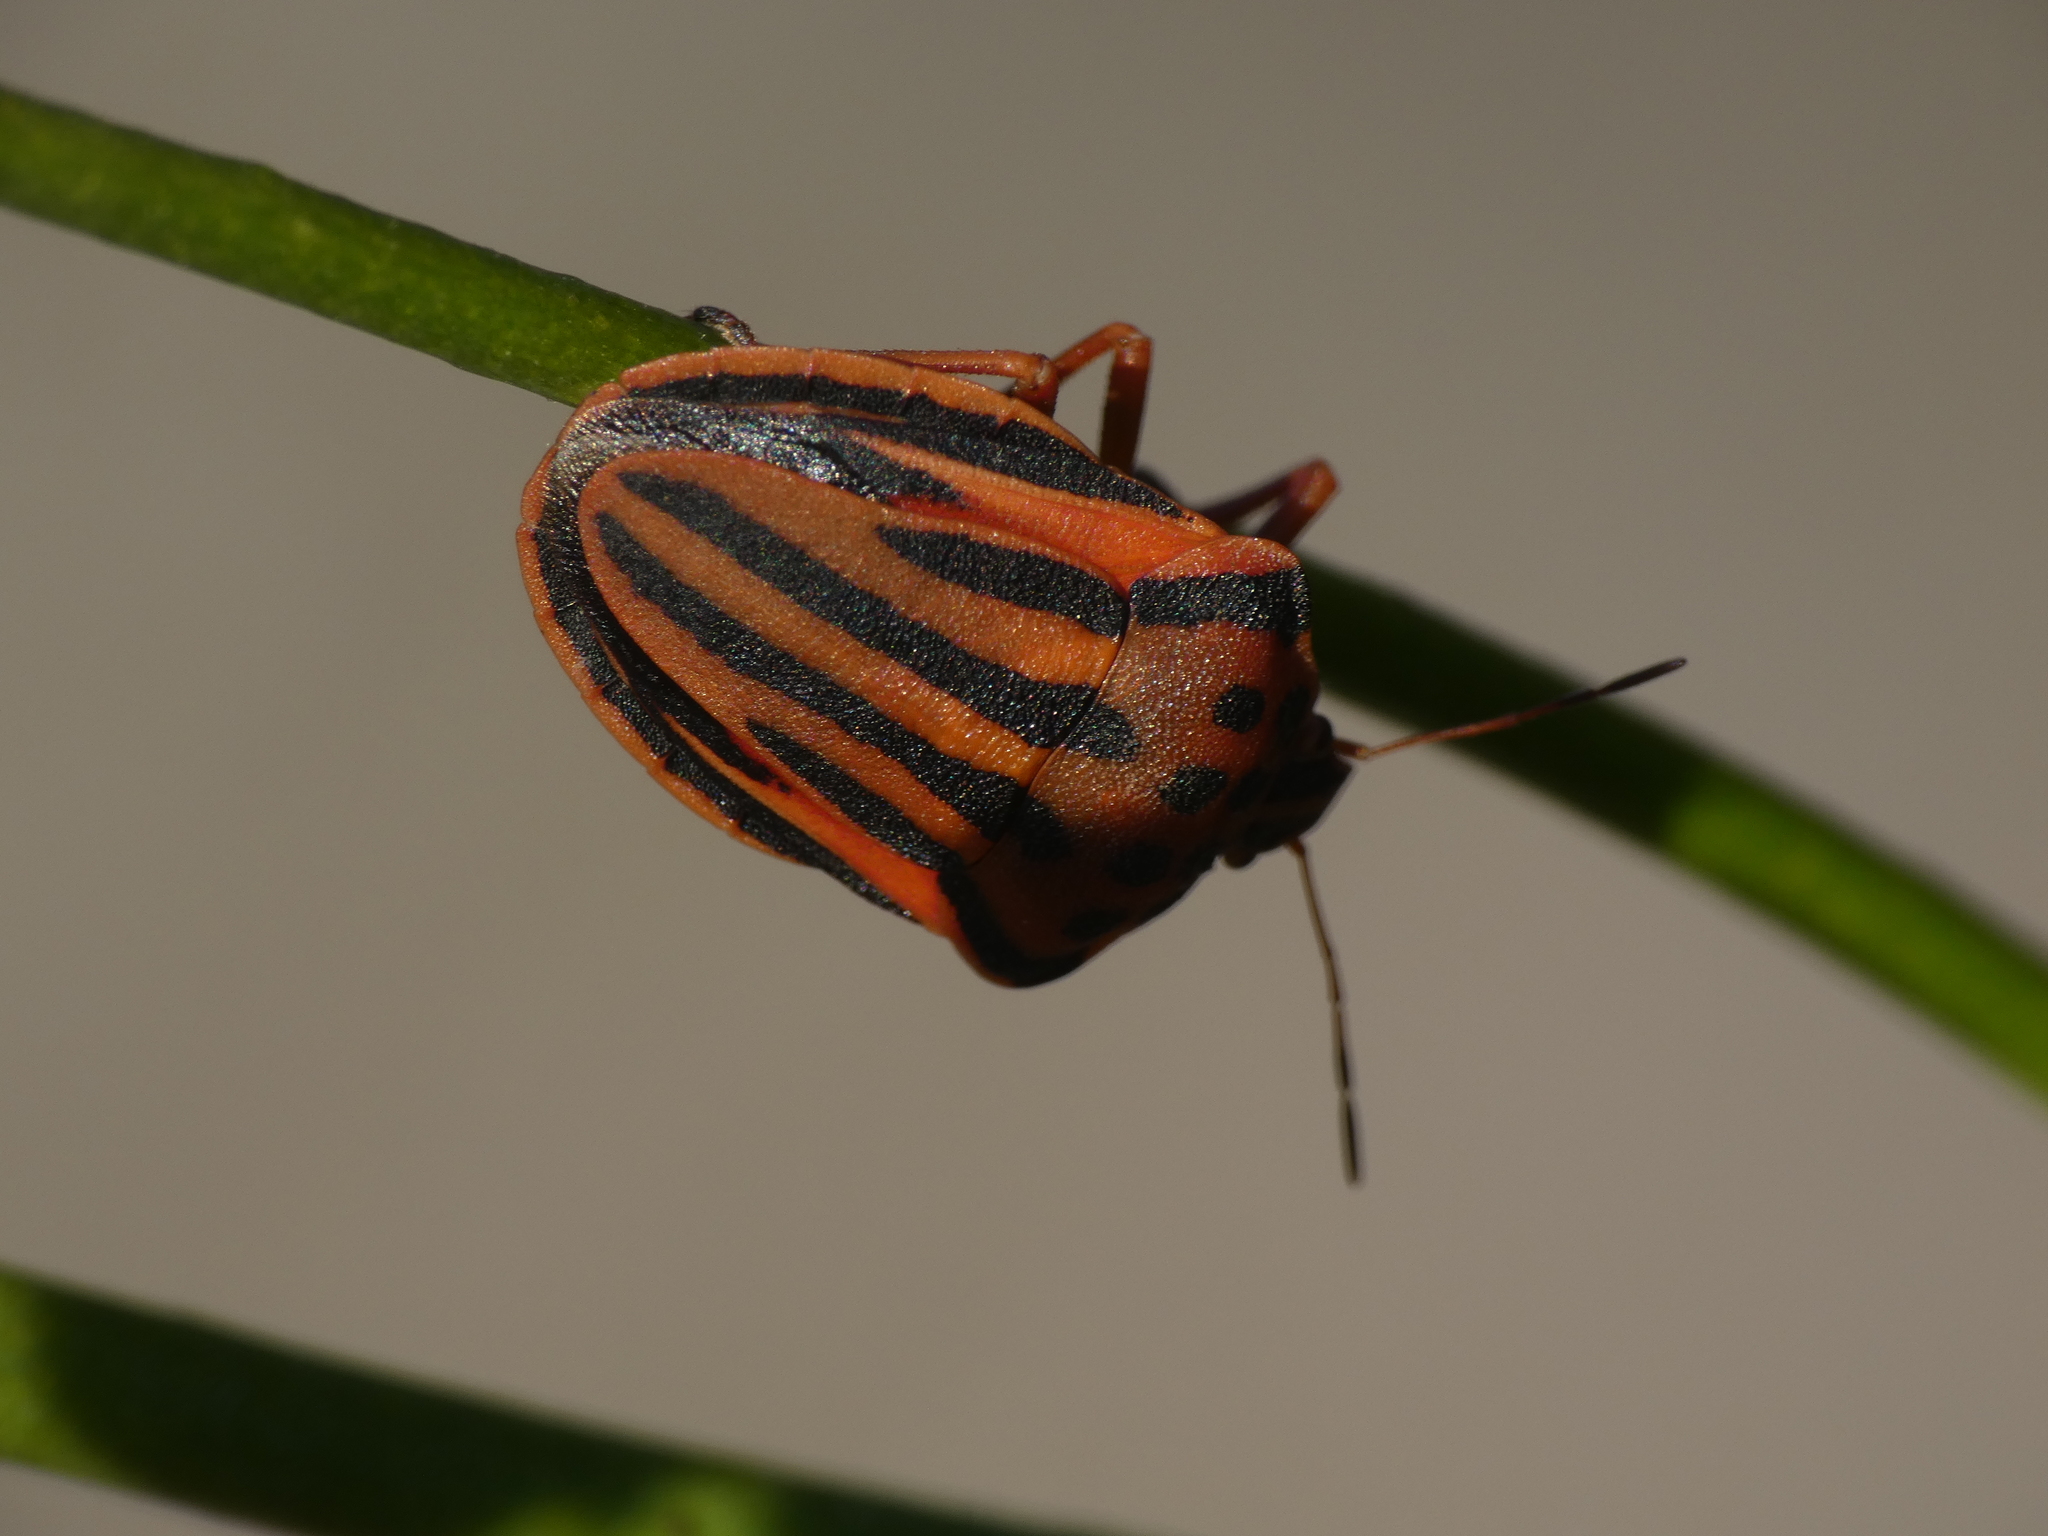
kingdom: Animalia
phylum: Arthropoda
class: Insecta
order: Hemiptera
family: Pentatomidae
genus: Graphosoma
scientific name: Graphosoma semipunctatum
